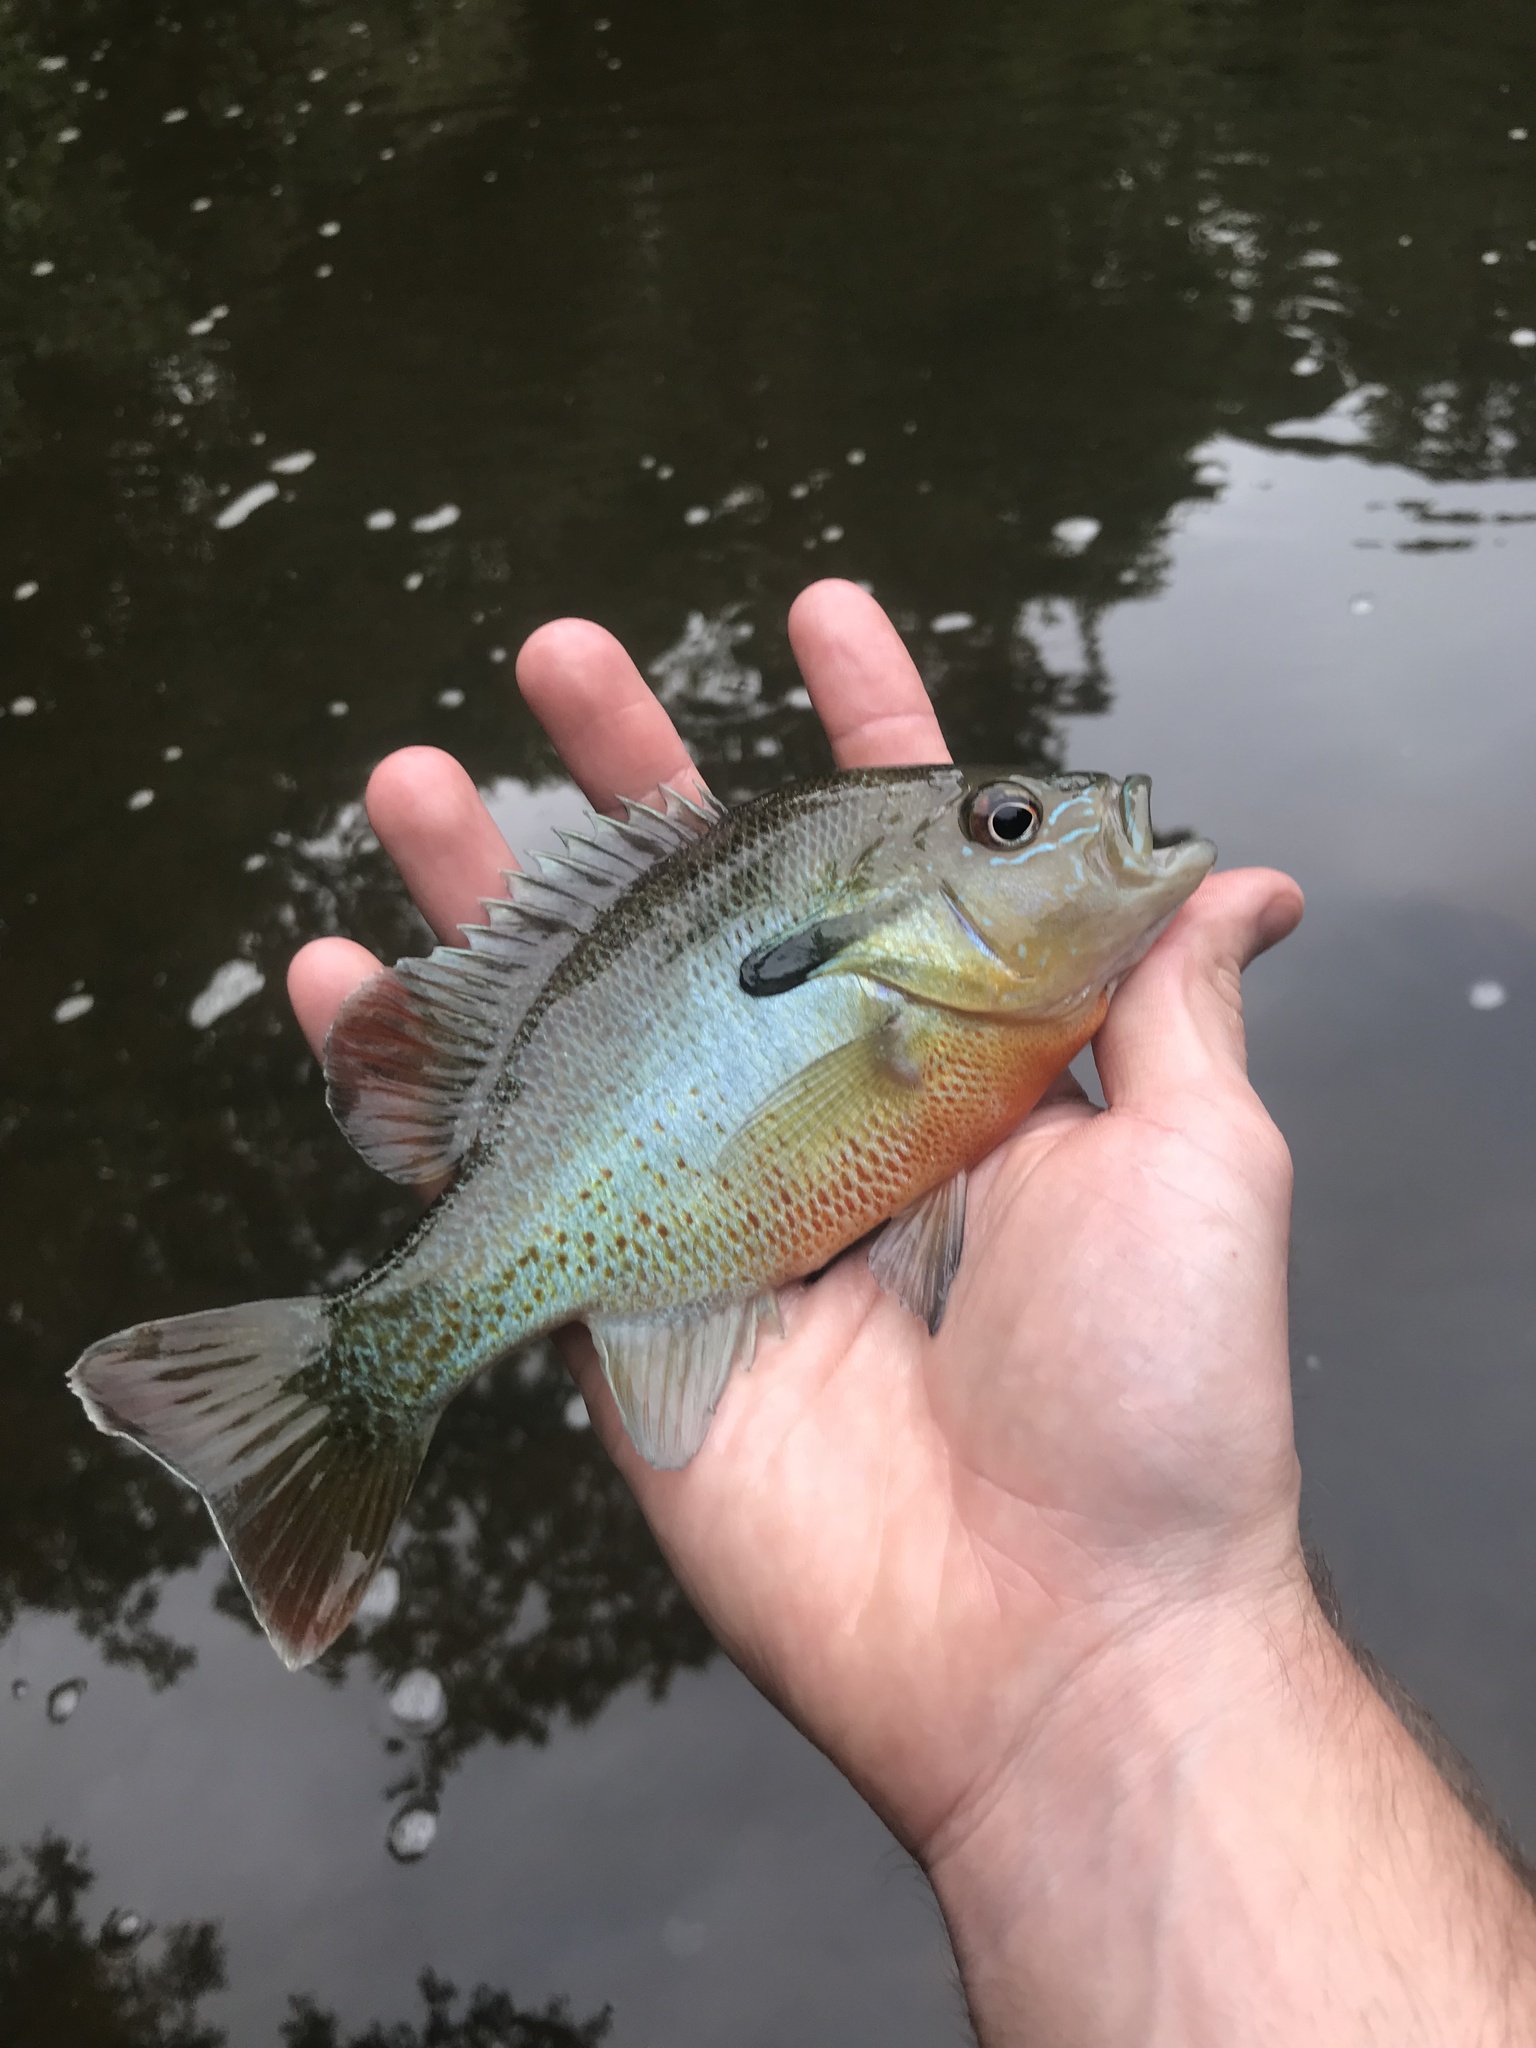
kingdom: Animalia
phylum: Chordata
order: Perciformes
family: Centrarchidae
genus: Lepomis
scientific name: Lepomis auritus
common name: Redbreast sunfish
